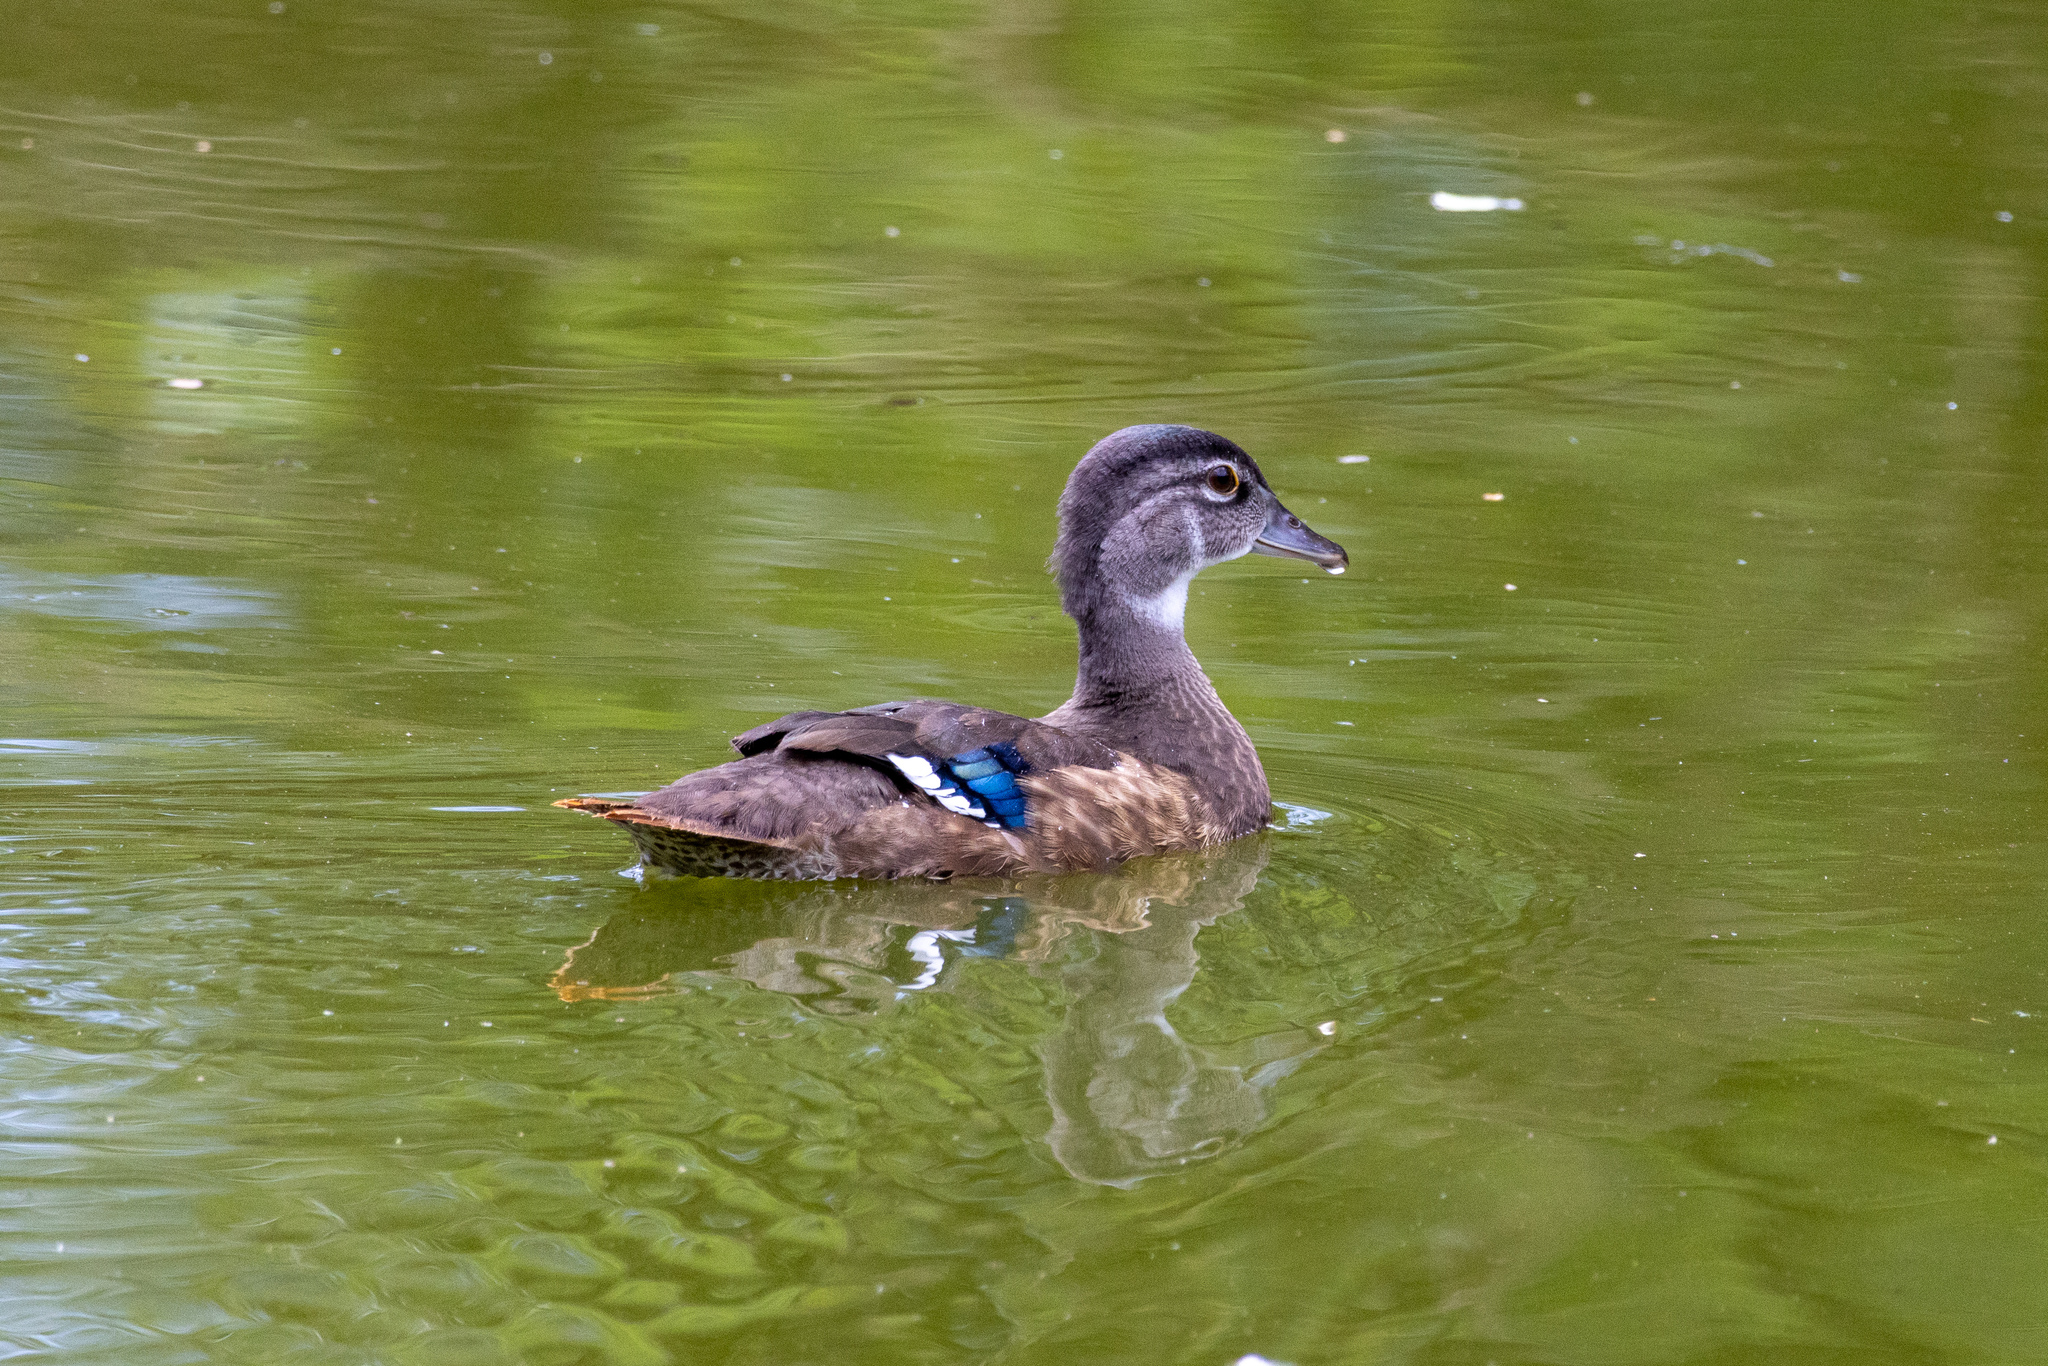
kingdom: Animalia
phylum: Chordata
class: Aves
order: Anseriformes
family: Anatidae
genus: Aix
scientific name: Aix sponsa
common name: Wood duck
